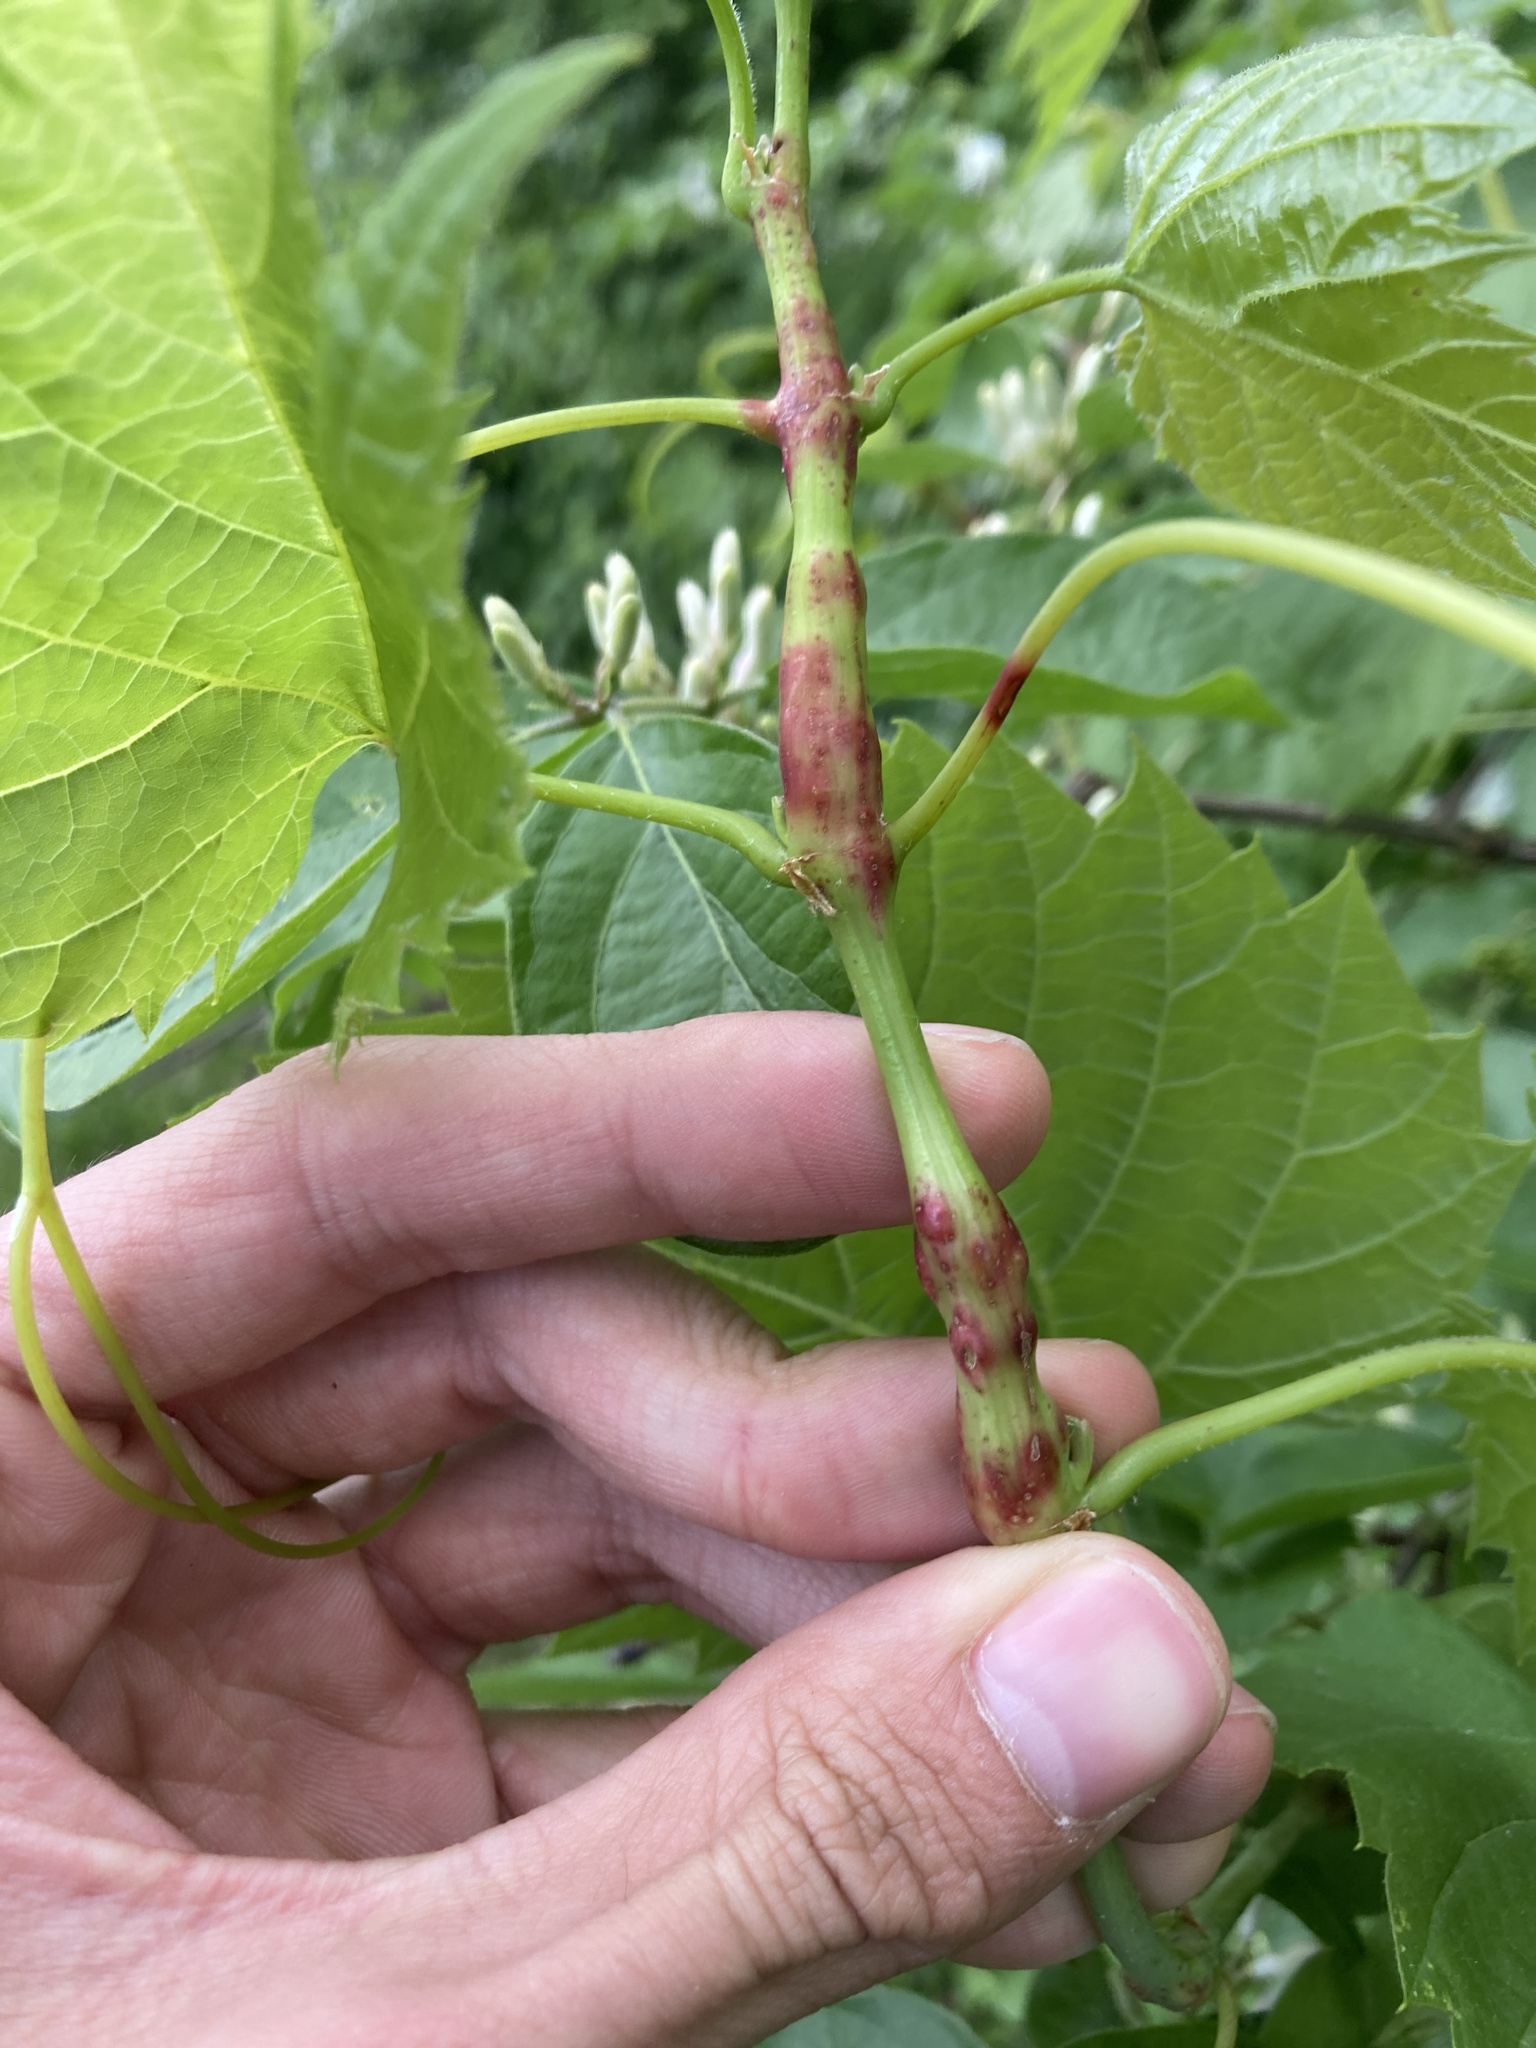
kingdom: Animalia
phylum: Arthropoda
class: Insecta
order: Coleoptera
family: Curculionidae
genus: Ampeloglypter
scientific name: Ampeloglypter sesostris
